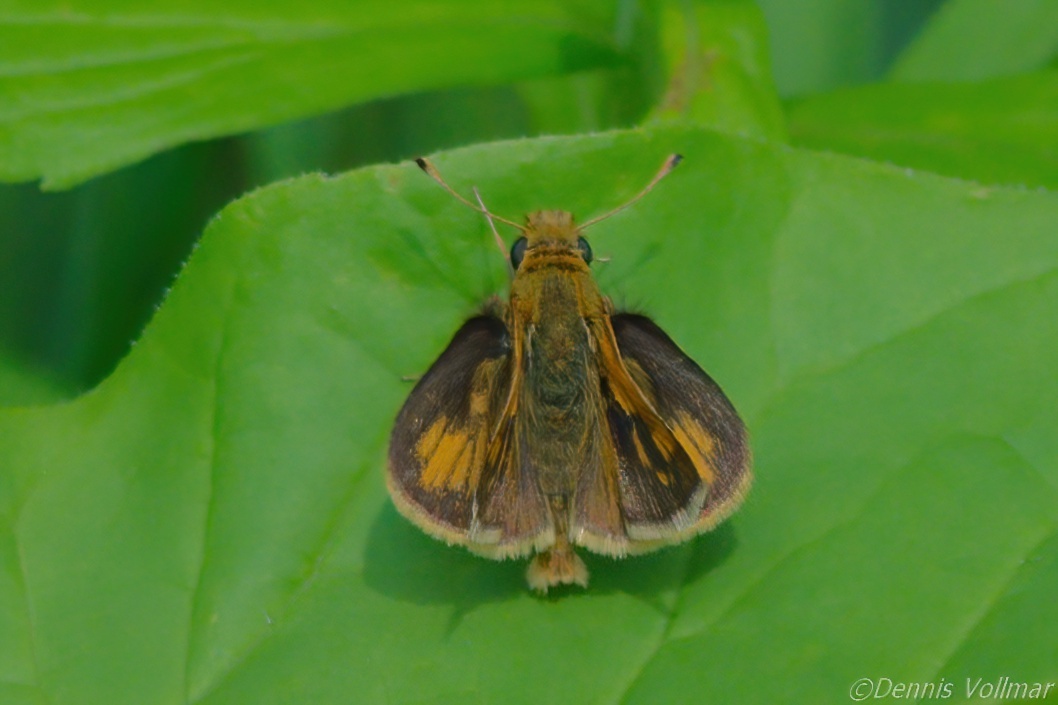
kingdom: Animalia
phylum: Arthropoda
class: Insecta
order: Lepidoptera
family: Hesperiidae
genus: Polites
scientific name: Polites coras
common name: Peck's skipper
